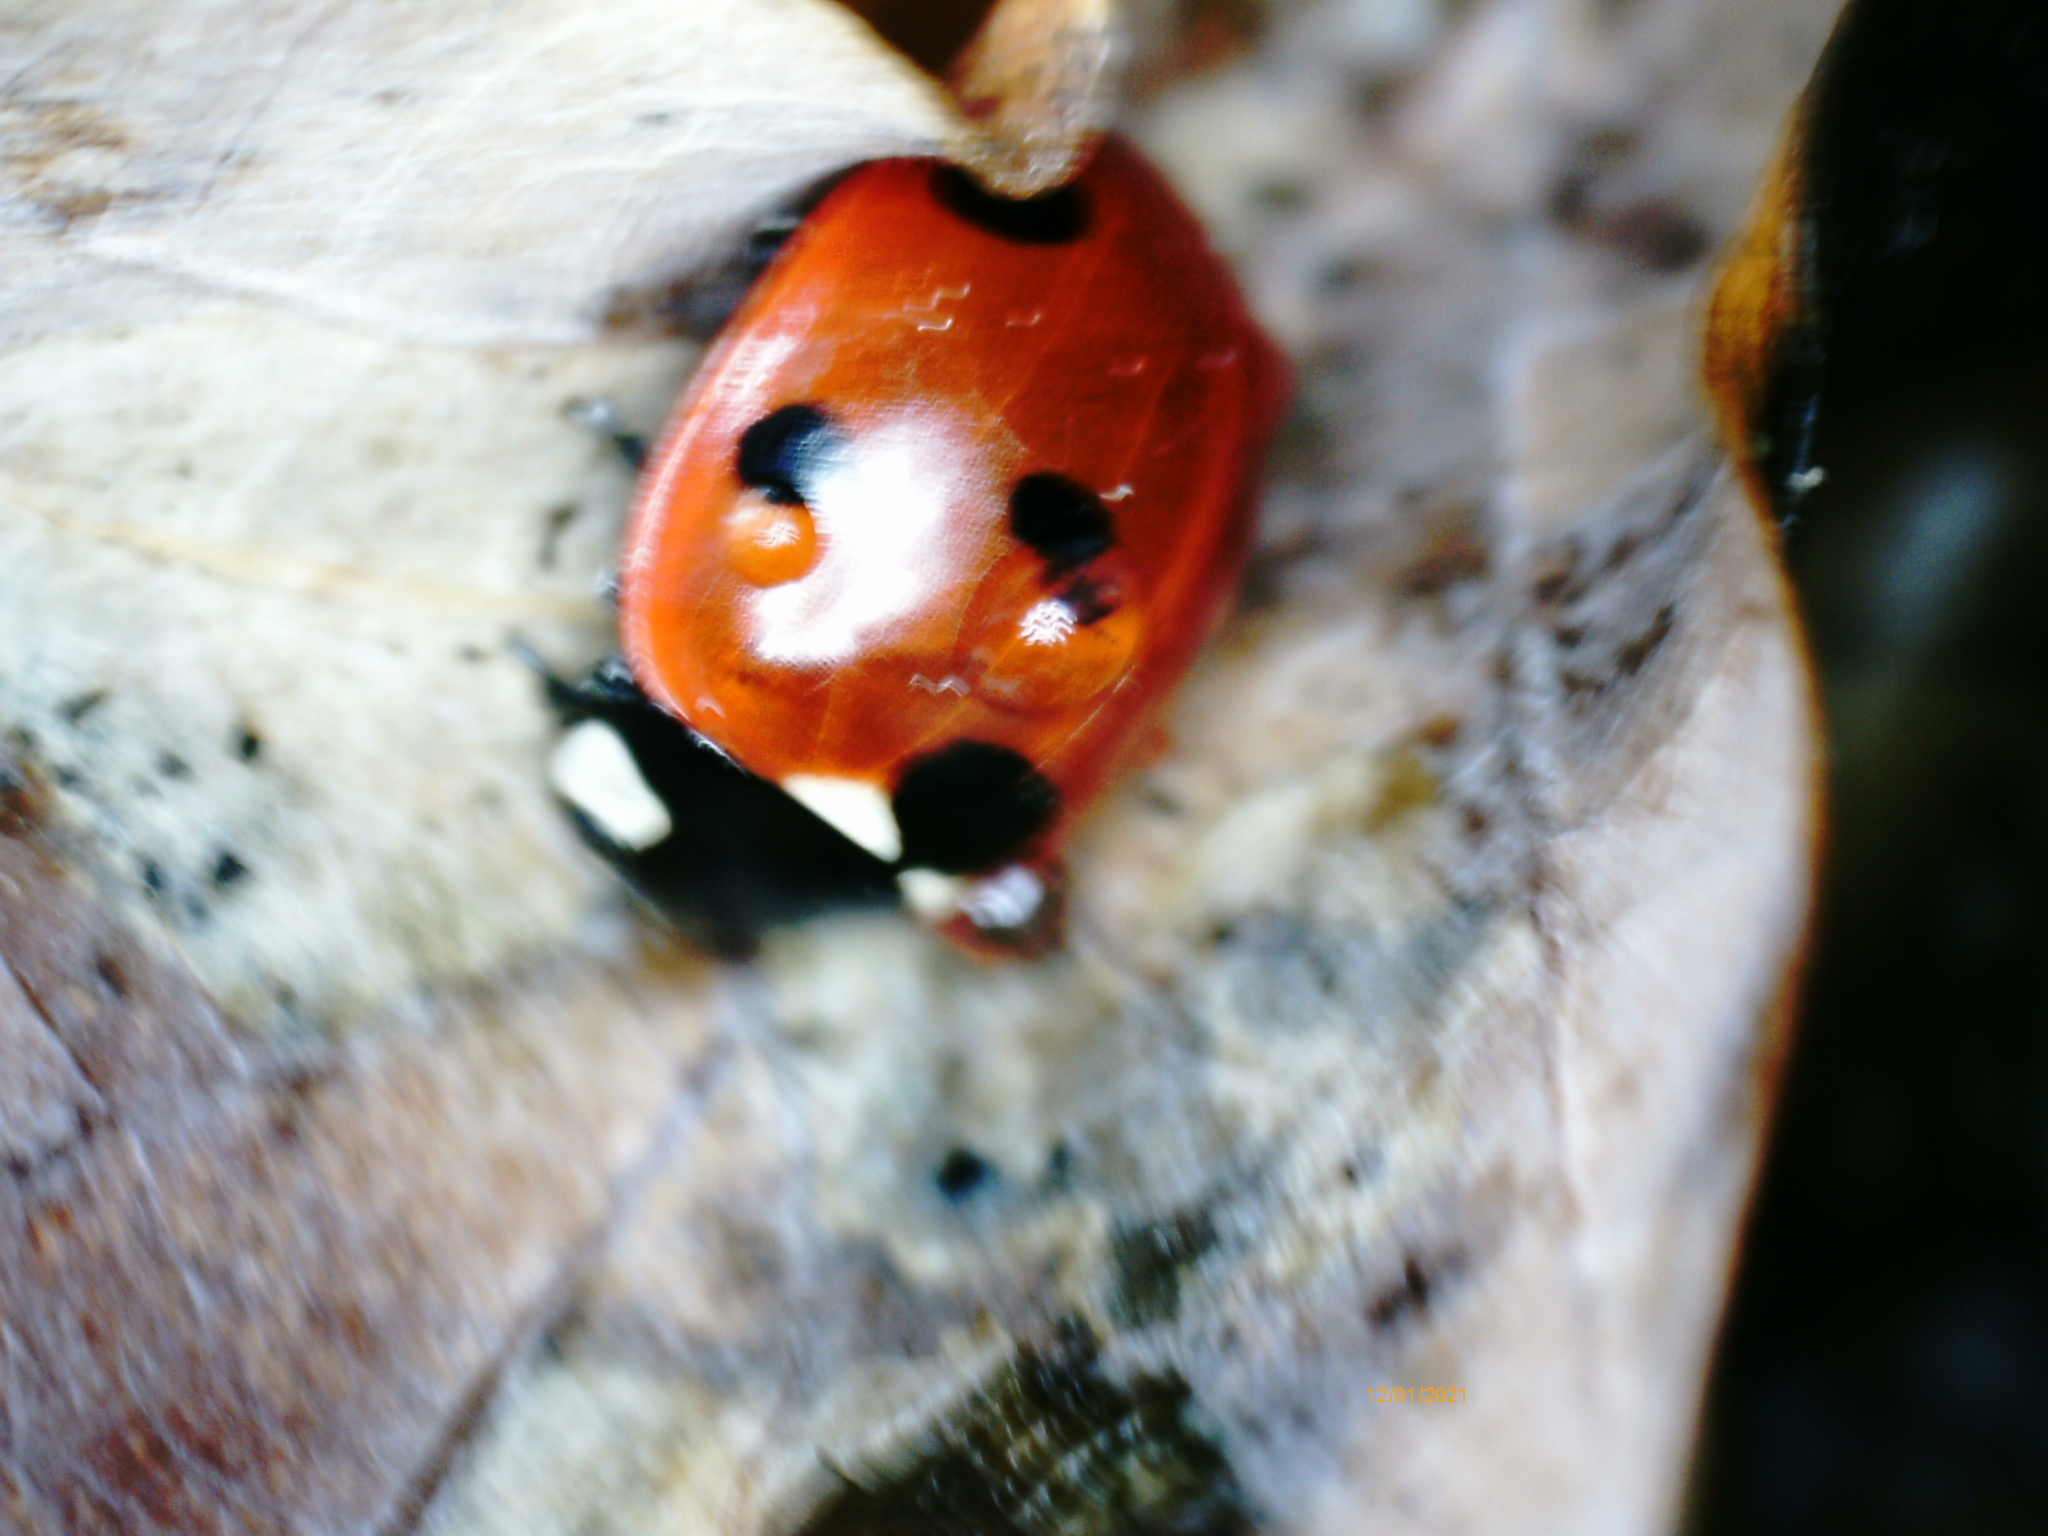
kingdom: Animalia
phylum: Arthropoda
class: Insecta
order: Coleoptera
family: Coccinellidae
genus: Coccinella
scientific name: Coccinella septempunctata
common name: Sevenspotted lady beetle
